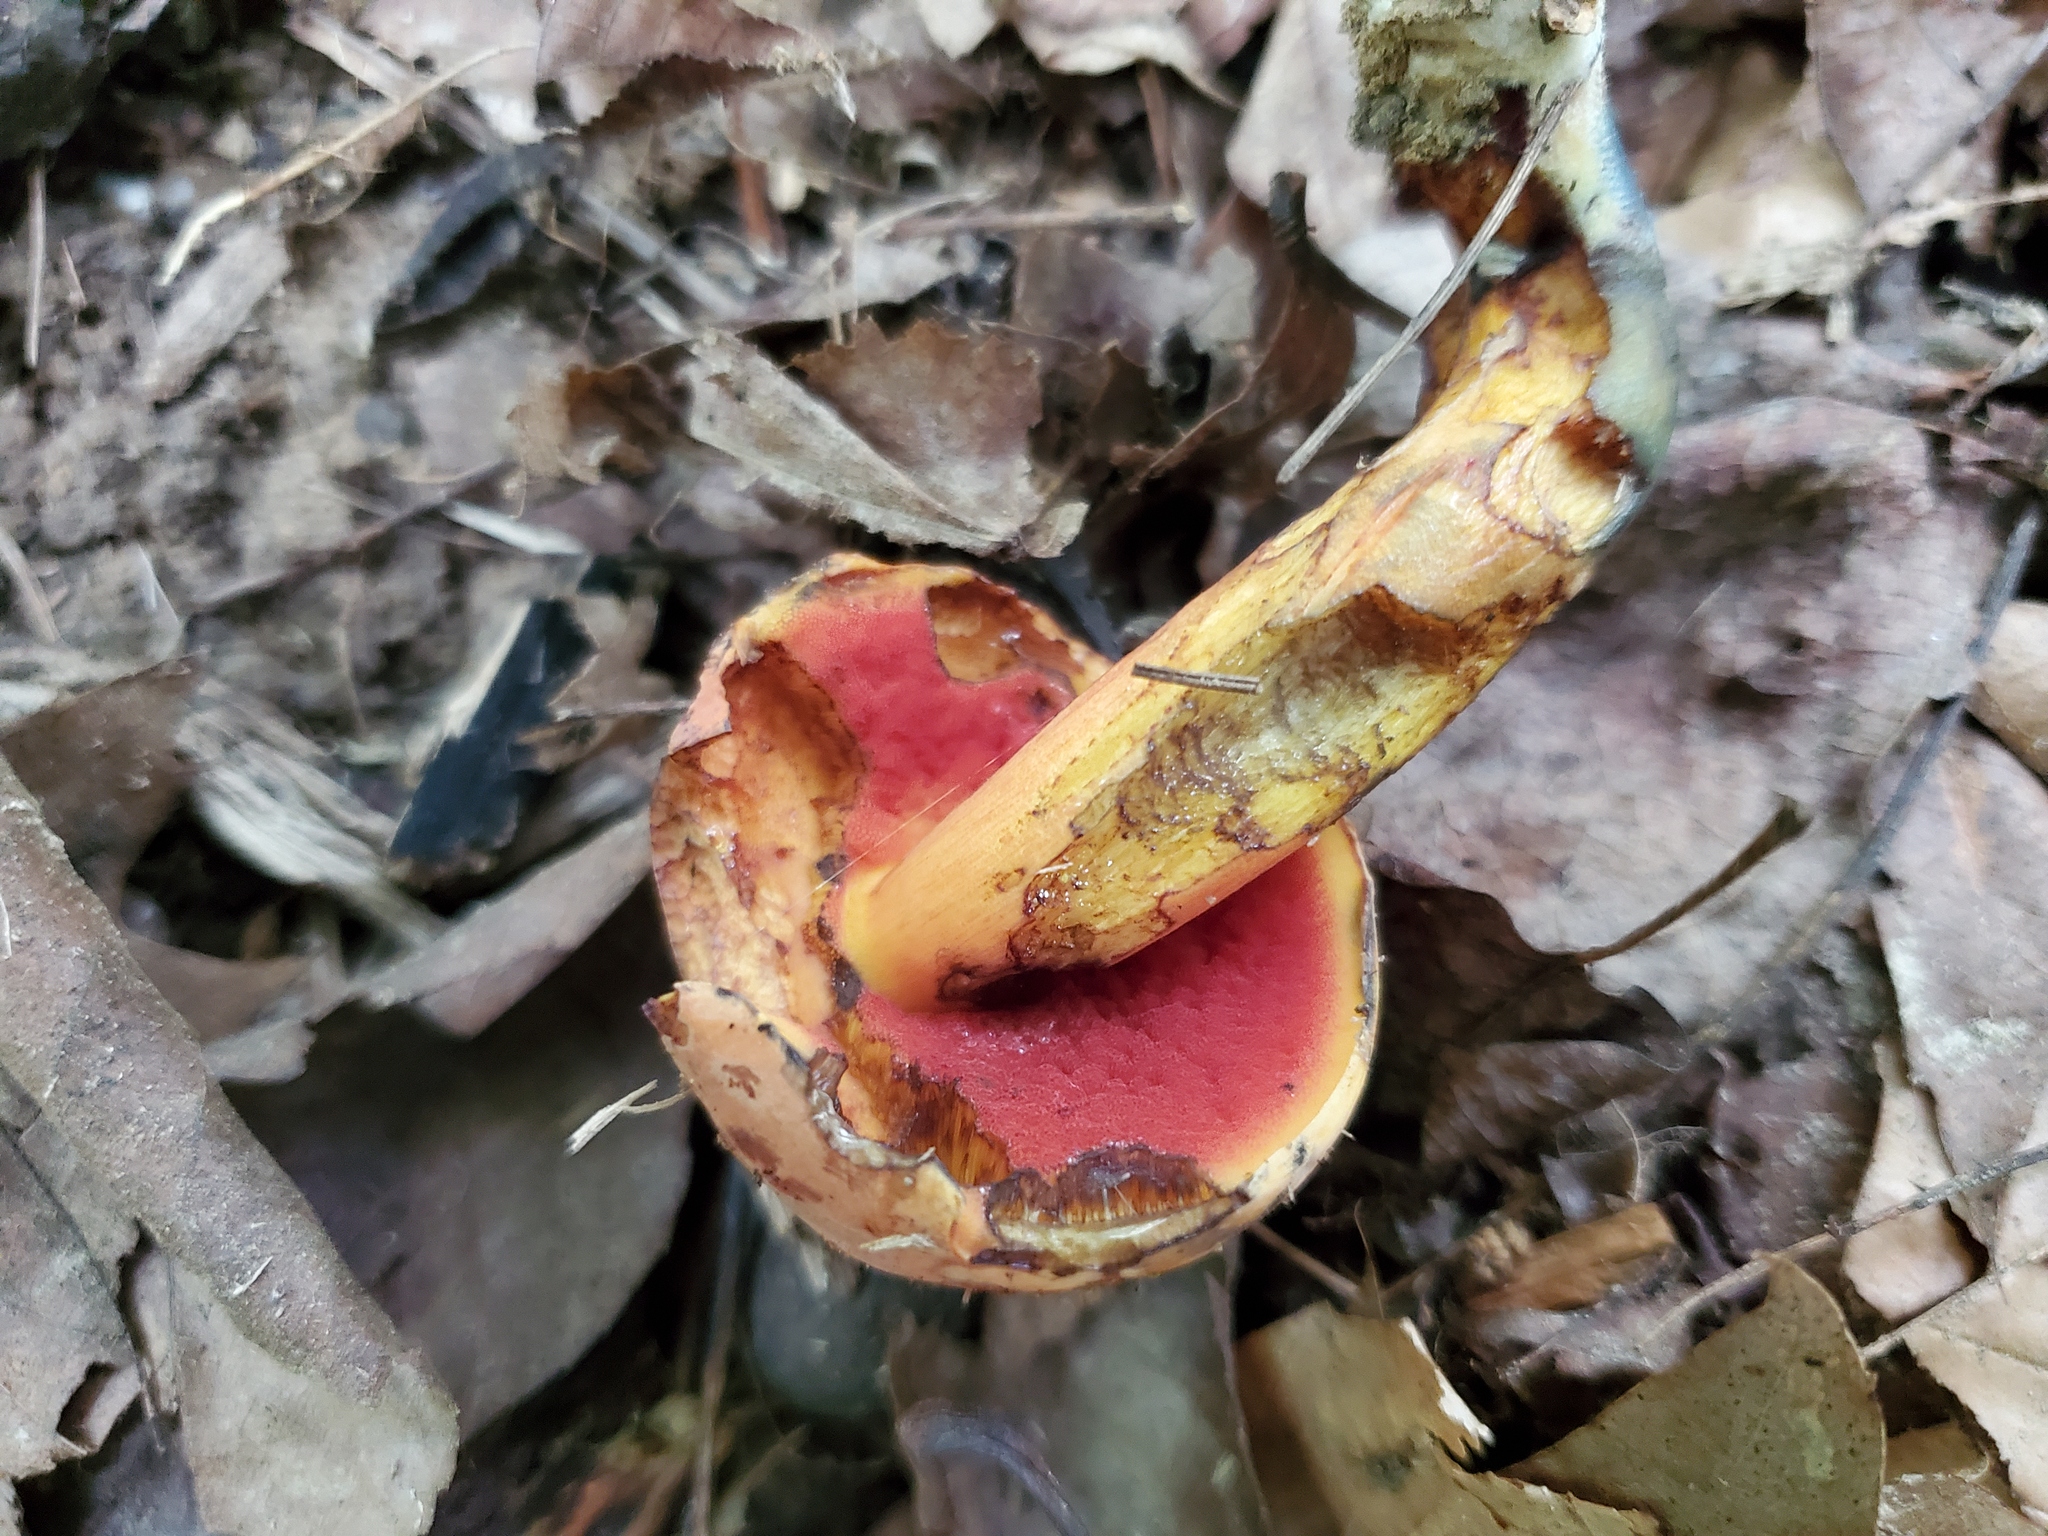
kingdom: Fungi
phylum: Basidiomycota
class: Agaricomycetes
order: Boletales
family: Boletaceae
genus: Boletus
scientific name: Boletus subluridellus
